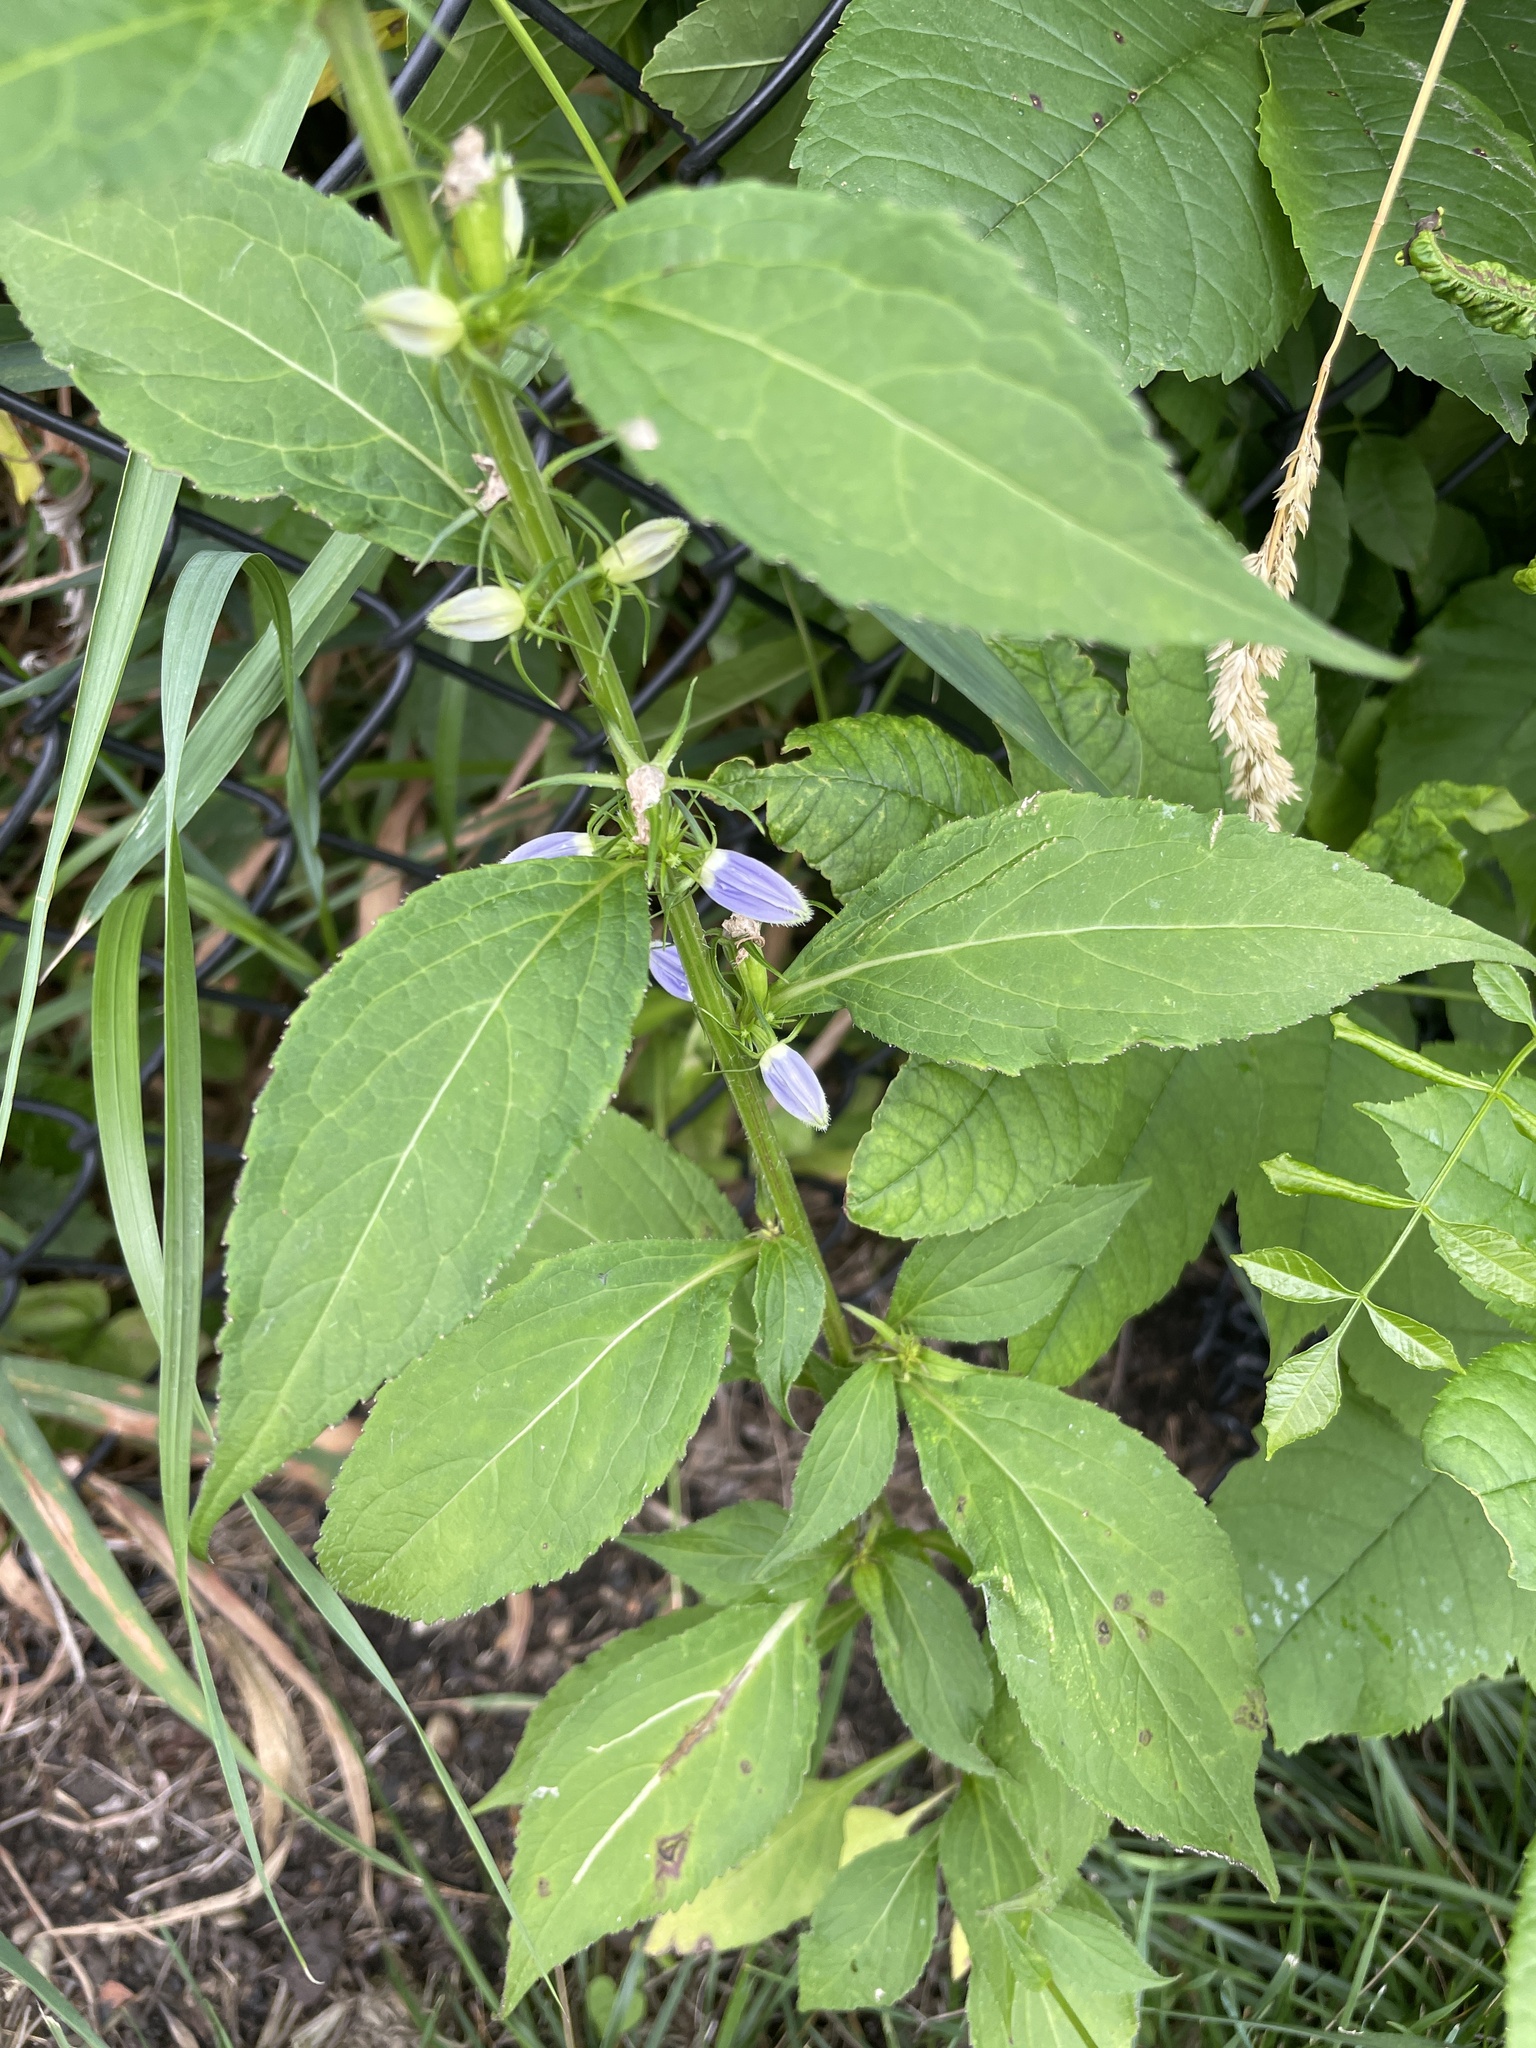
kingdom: Plantae
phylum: Tracheophyta
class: Magnoliopsida
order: Asterales
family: Campanulaceae
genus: Campanulastrum
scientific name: Campanulastrum americanum
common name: American bellflower
